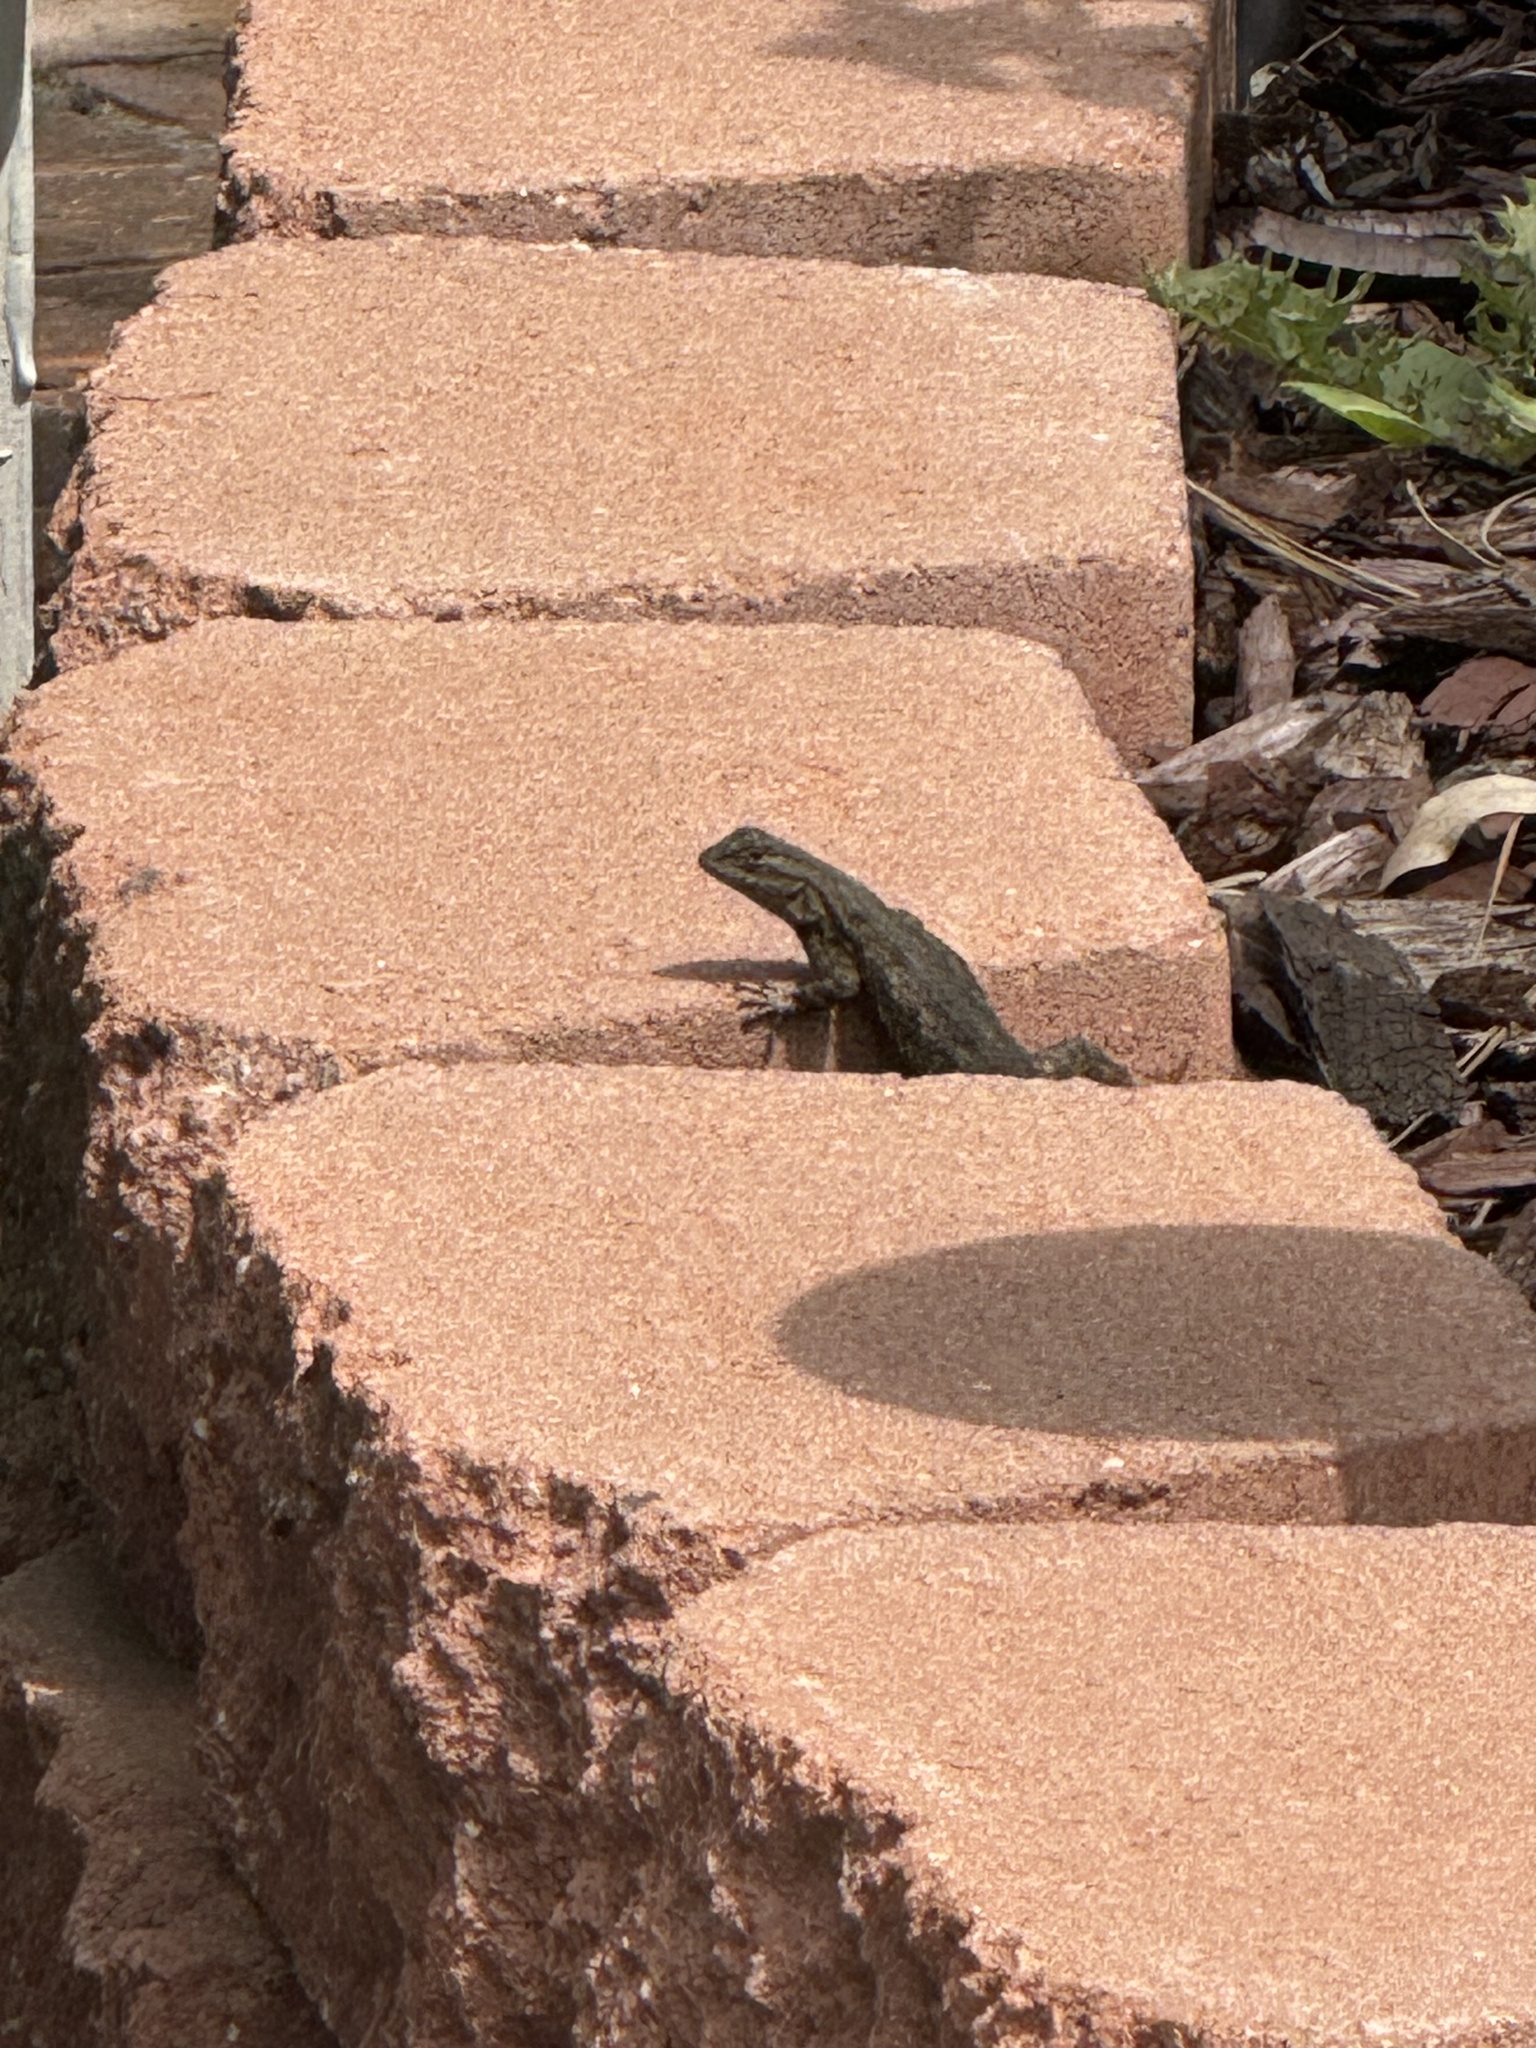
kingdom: Animalia
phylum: Chordata
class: Squamata
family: Phrynosomatidae
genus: Sceloporus
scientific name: Sceloporus occidentalis
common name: Western fence lizard
